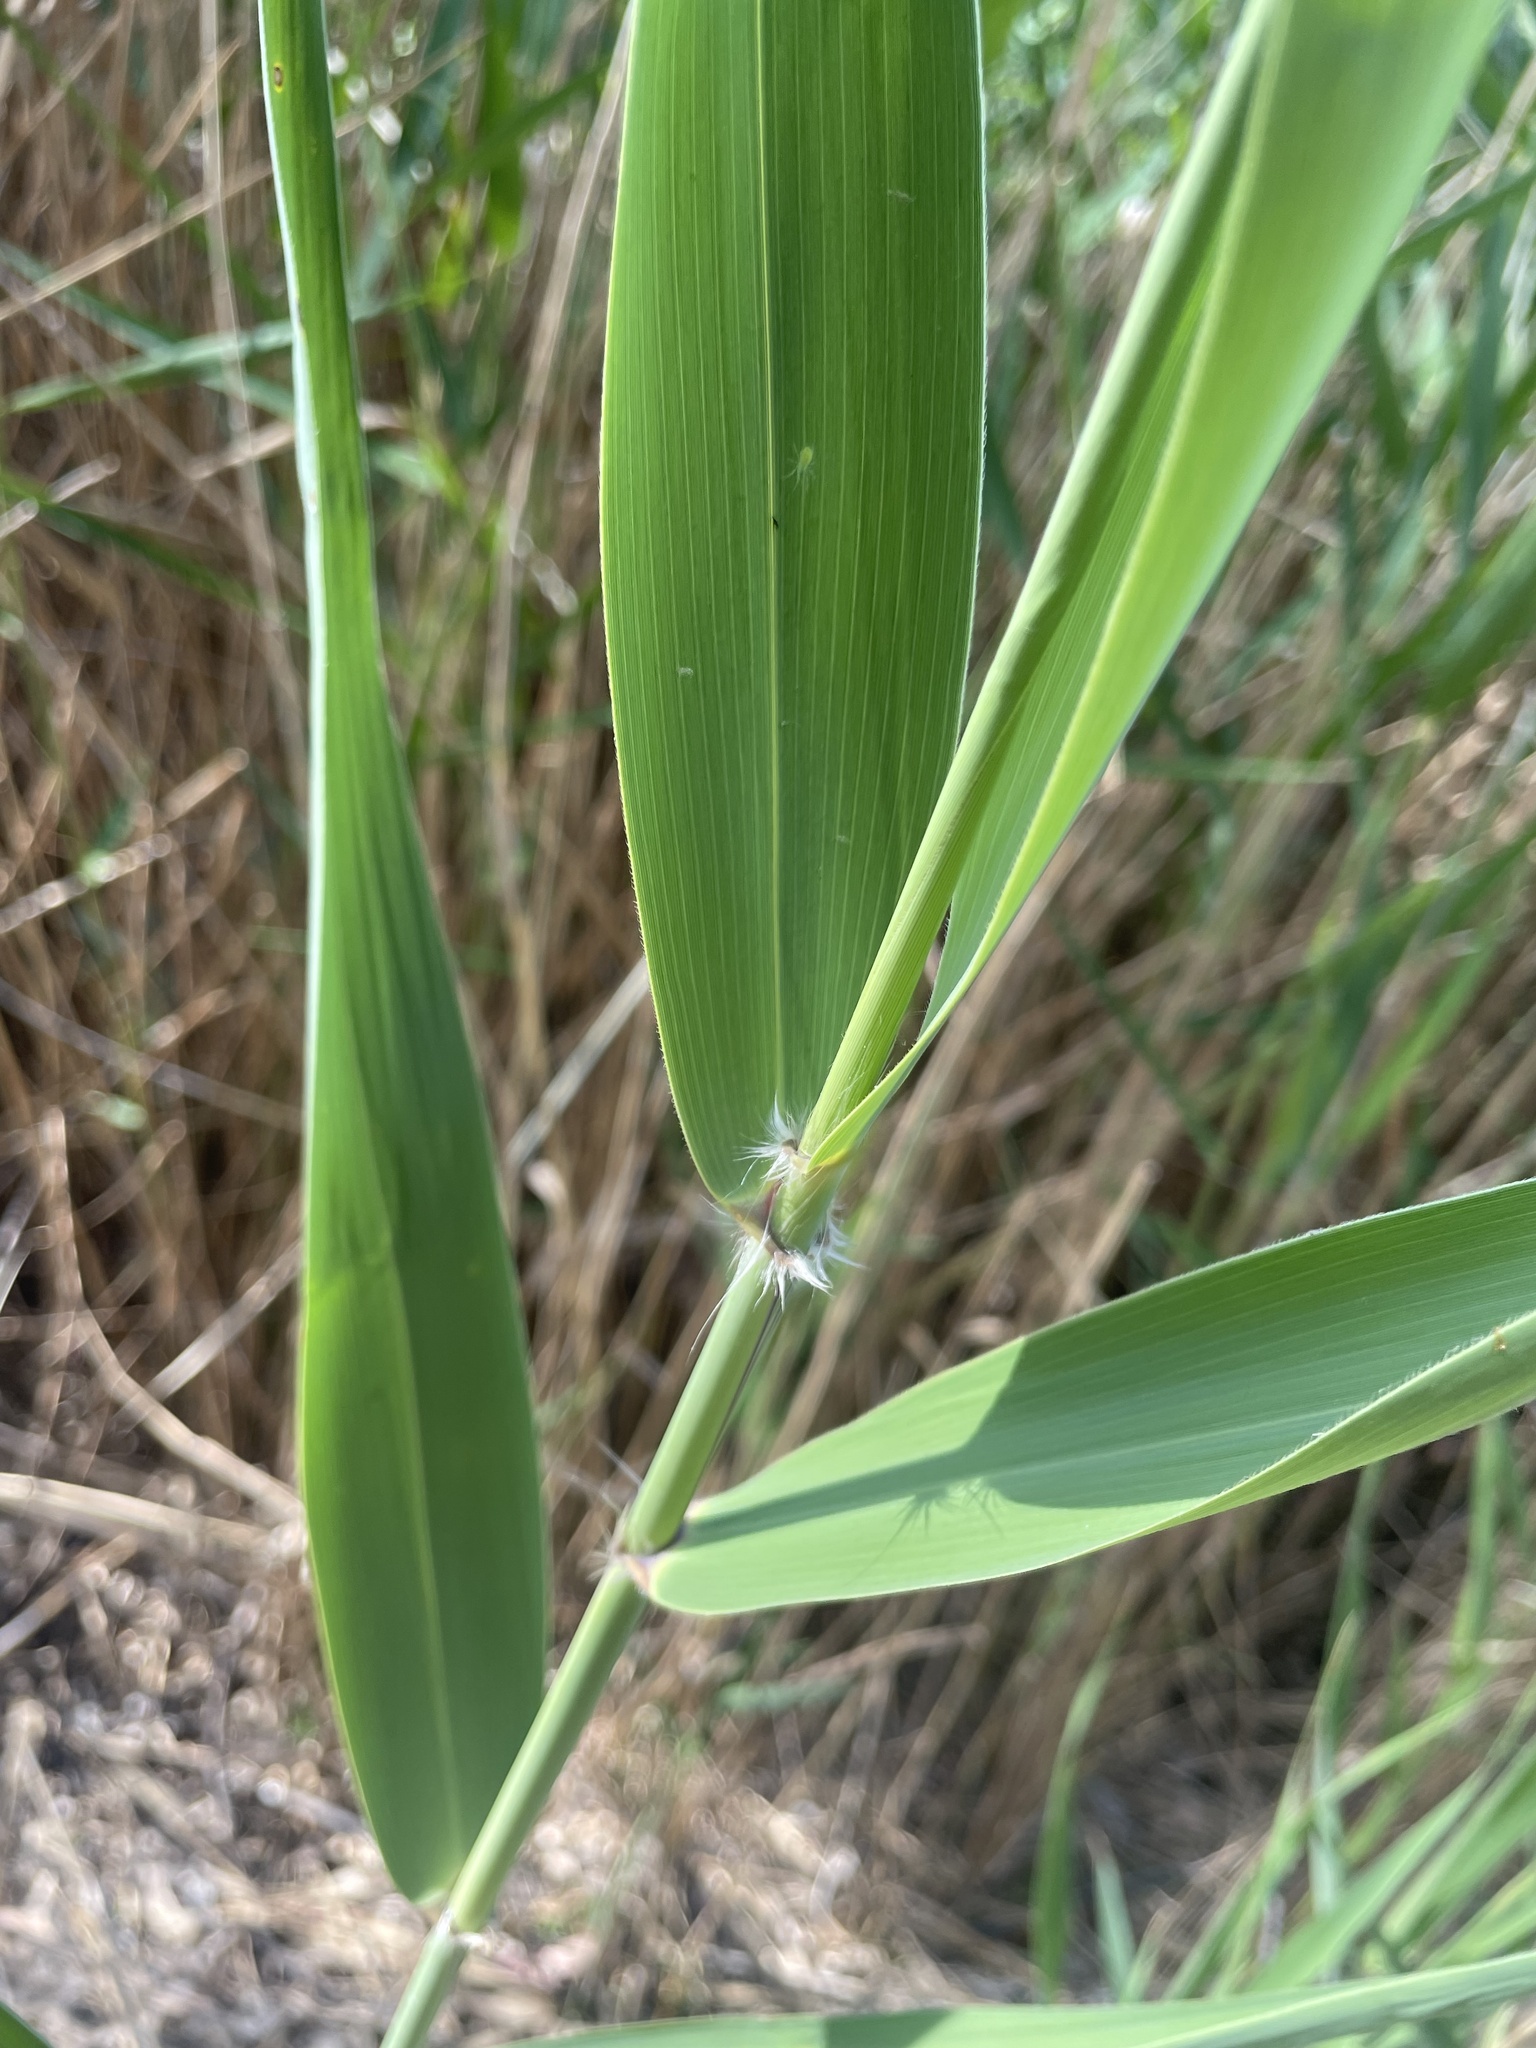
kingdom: Plantae
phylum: Tracheophyta
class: Liliopsida
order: Poales
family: Poaceae
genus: Phragmites
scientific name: Phragmites australis
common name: Common reed
